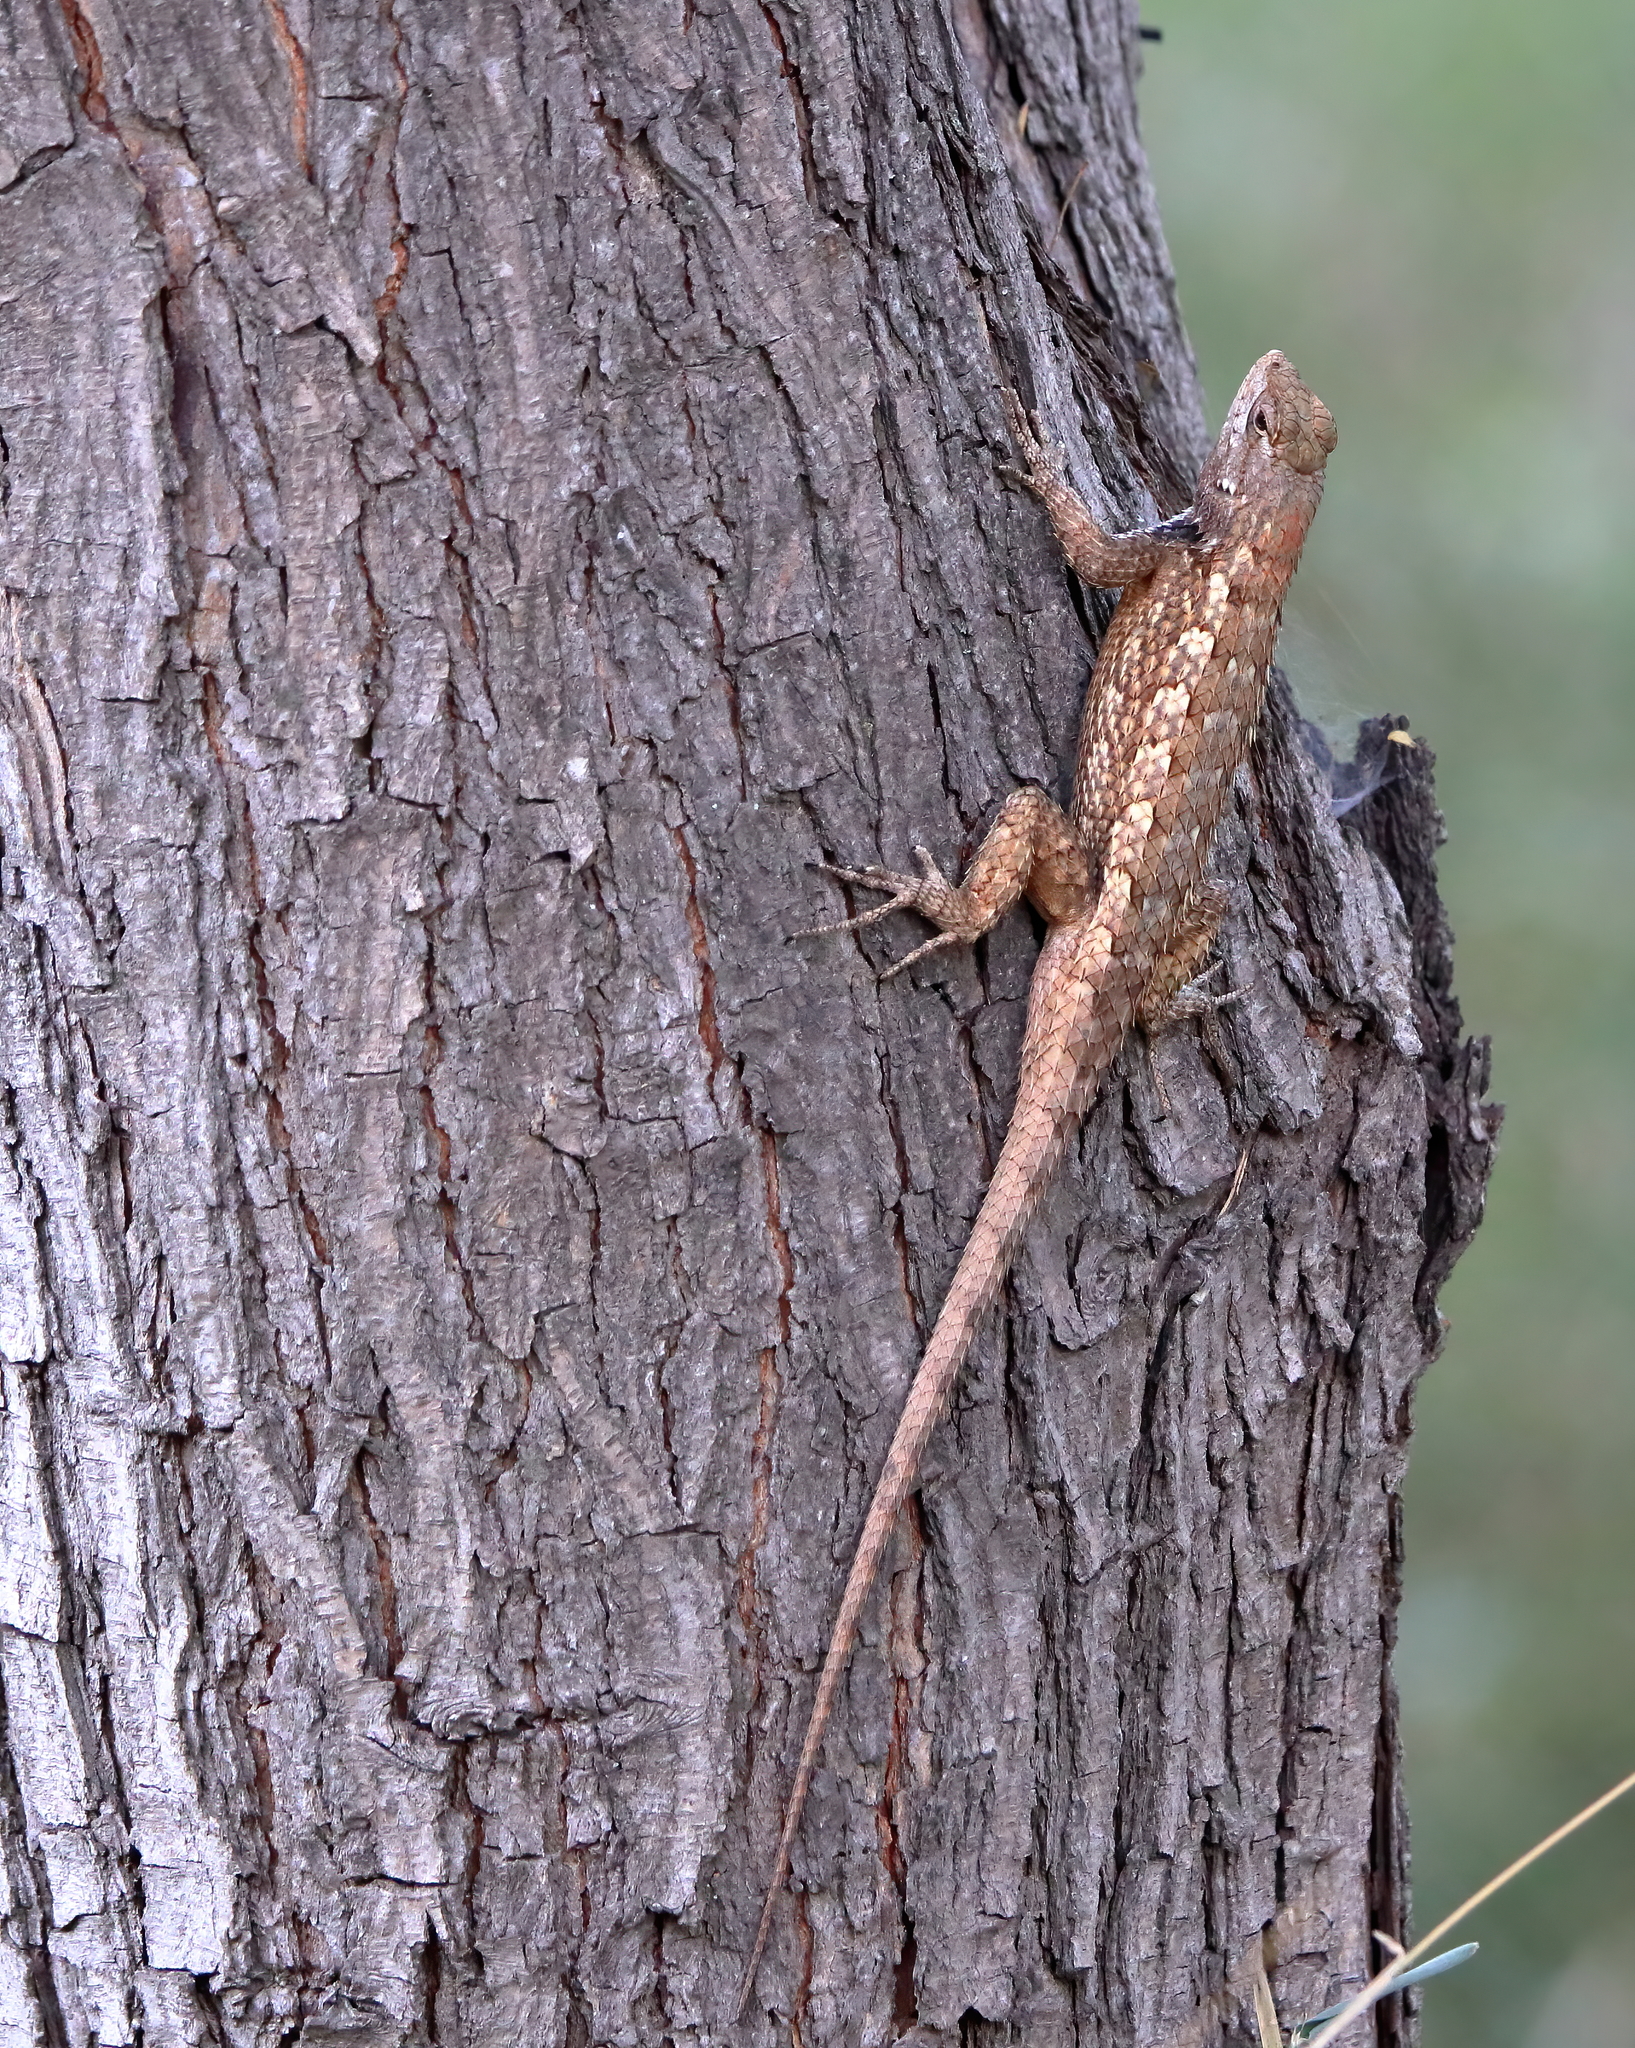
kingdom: Animalia
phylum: Chordata
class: Squamata
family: Phrynosomatidae
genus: Sceloporus
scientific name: Sceloporus olivaceus
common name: Texas spiny lizard
